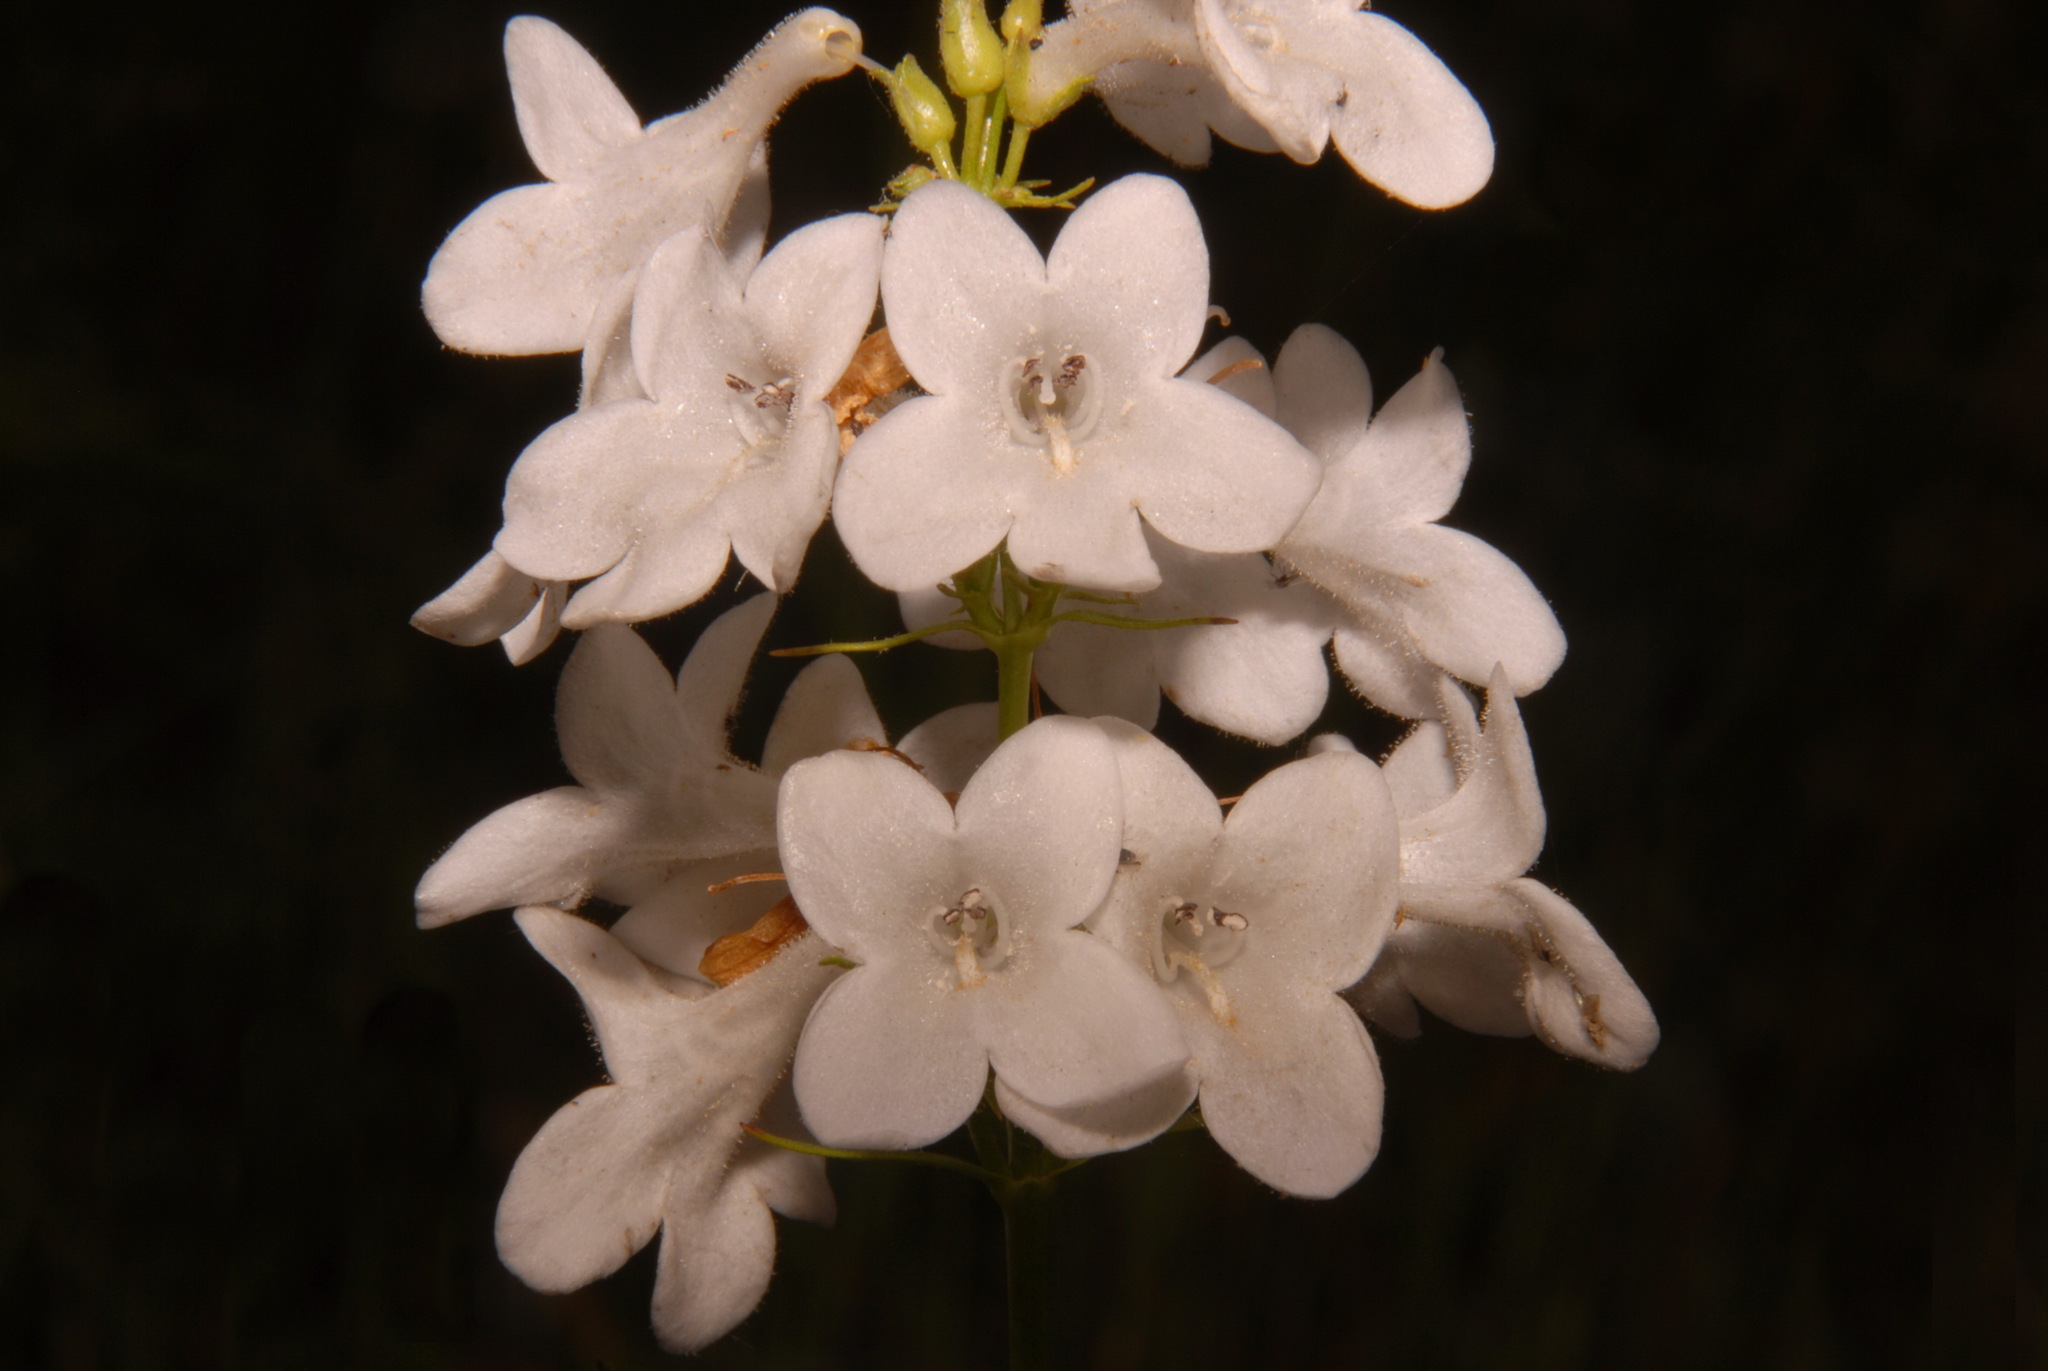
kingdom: Plantae
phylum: Tracheophyta
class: Magnoliopsida
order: Lamiales
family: Plantaginaceae
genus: Penstemon
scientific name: Penstemon tubaeflorus
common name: White wand beardtongue
